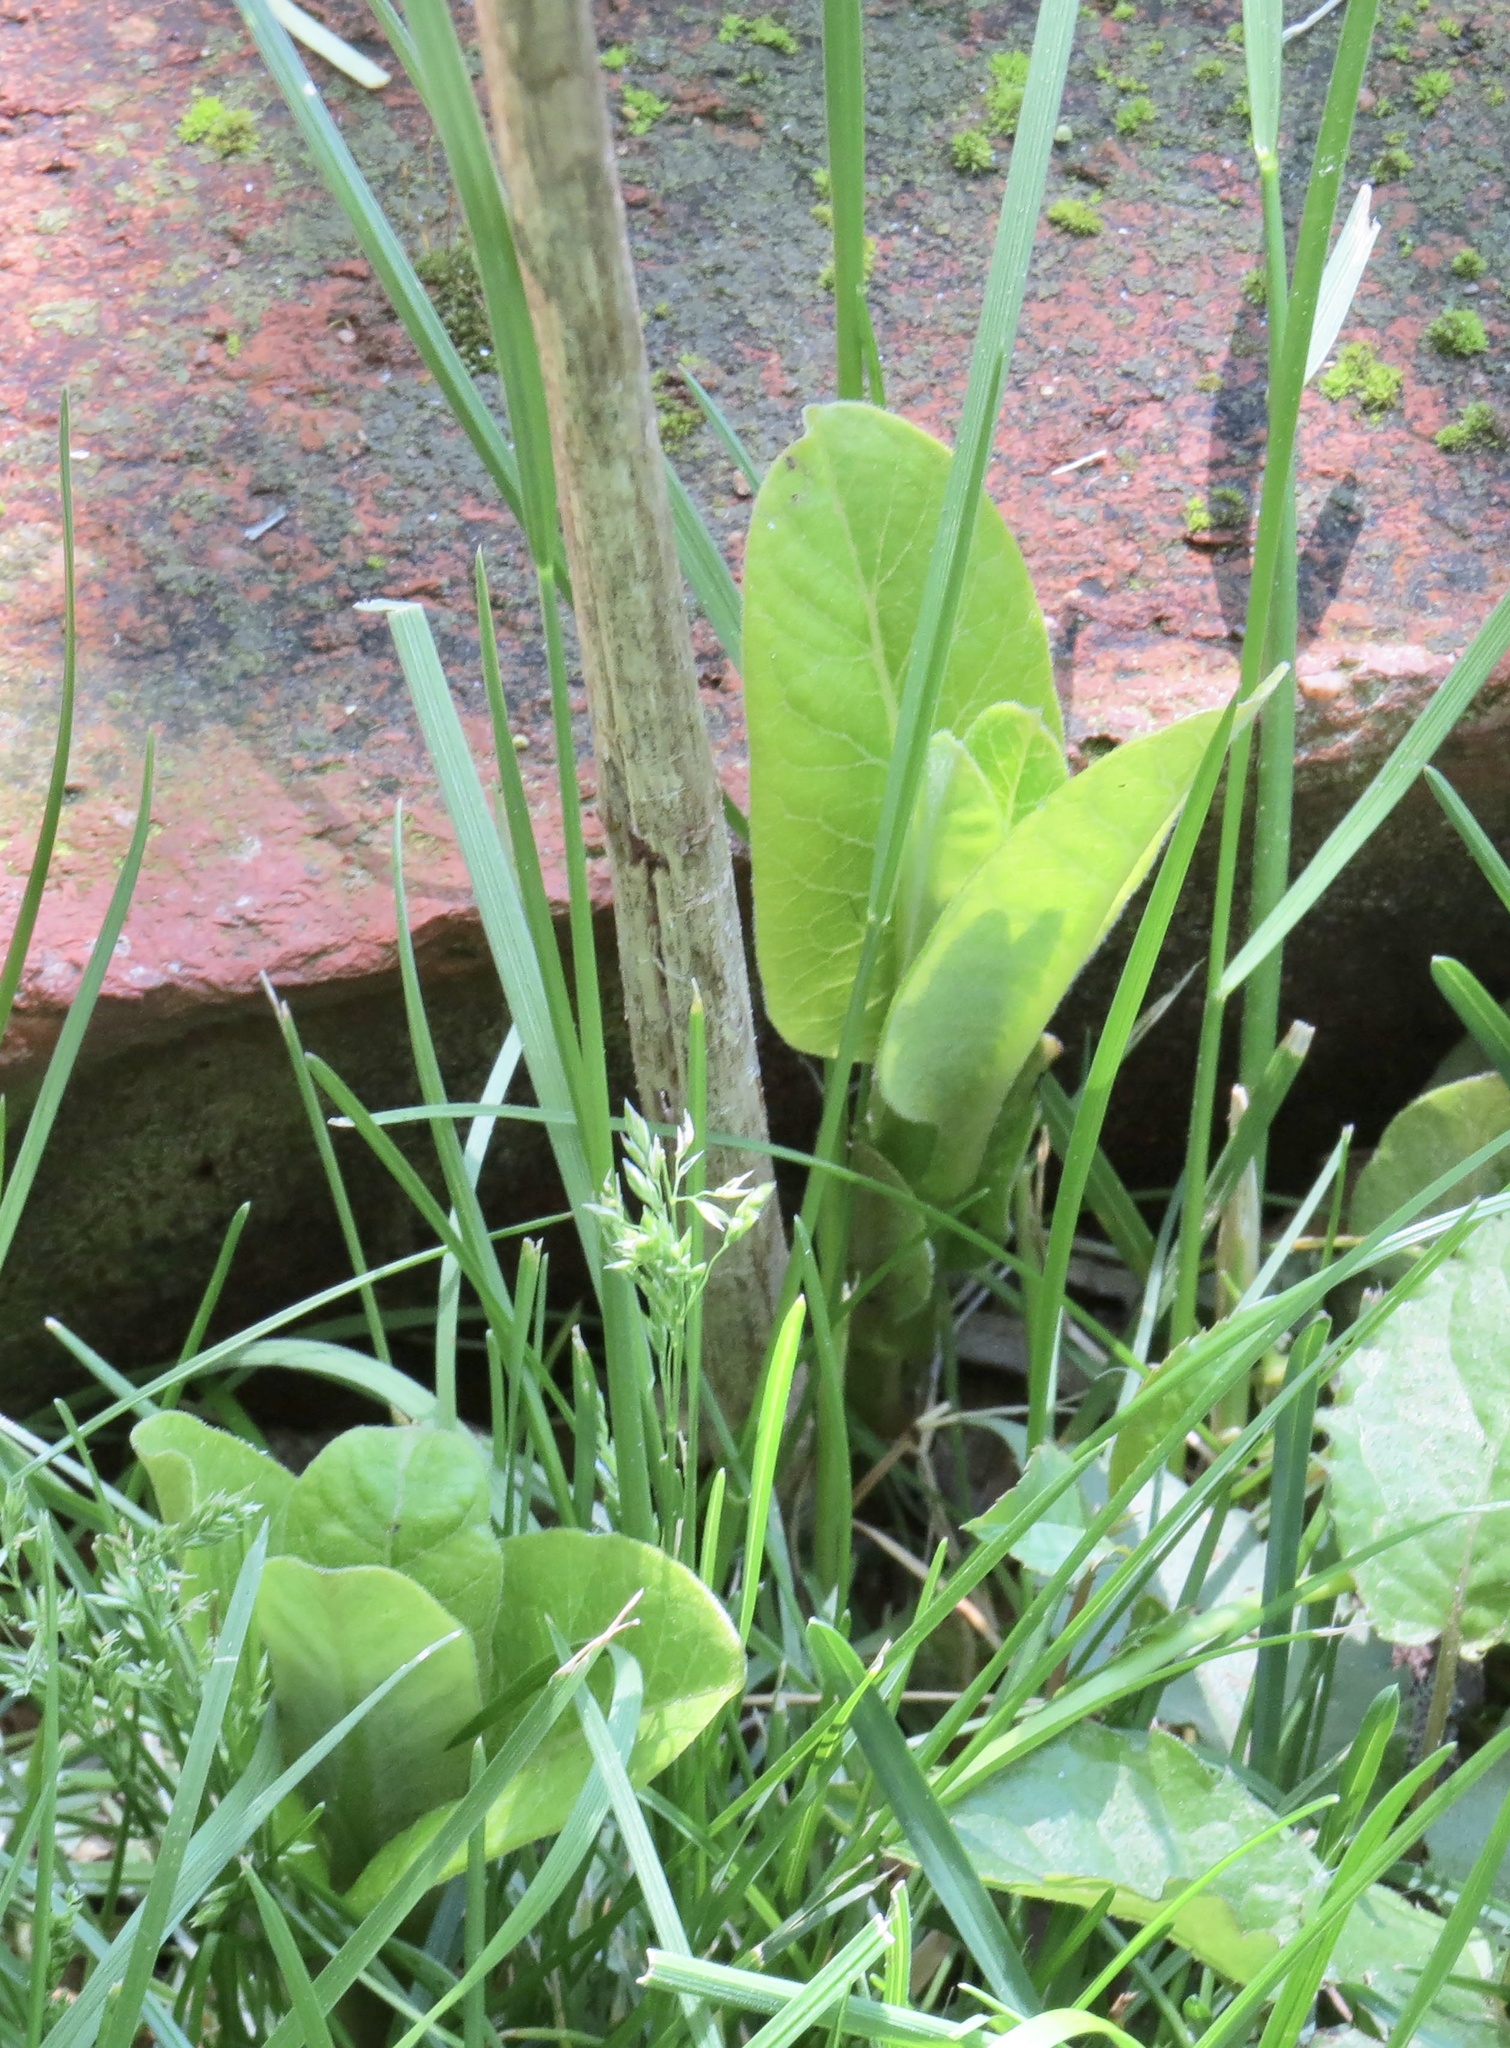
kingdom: Plantae
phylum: Tracheophyta
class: Magnoliopsida
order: Gentianales
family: Apocynaceae
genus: Asclepias
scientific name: Asclepias syriaca
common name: Common milkweed
